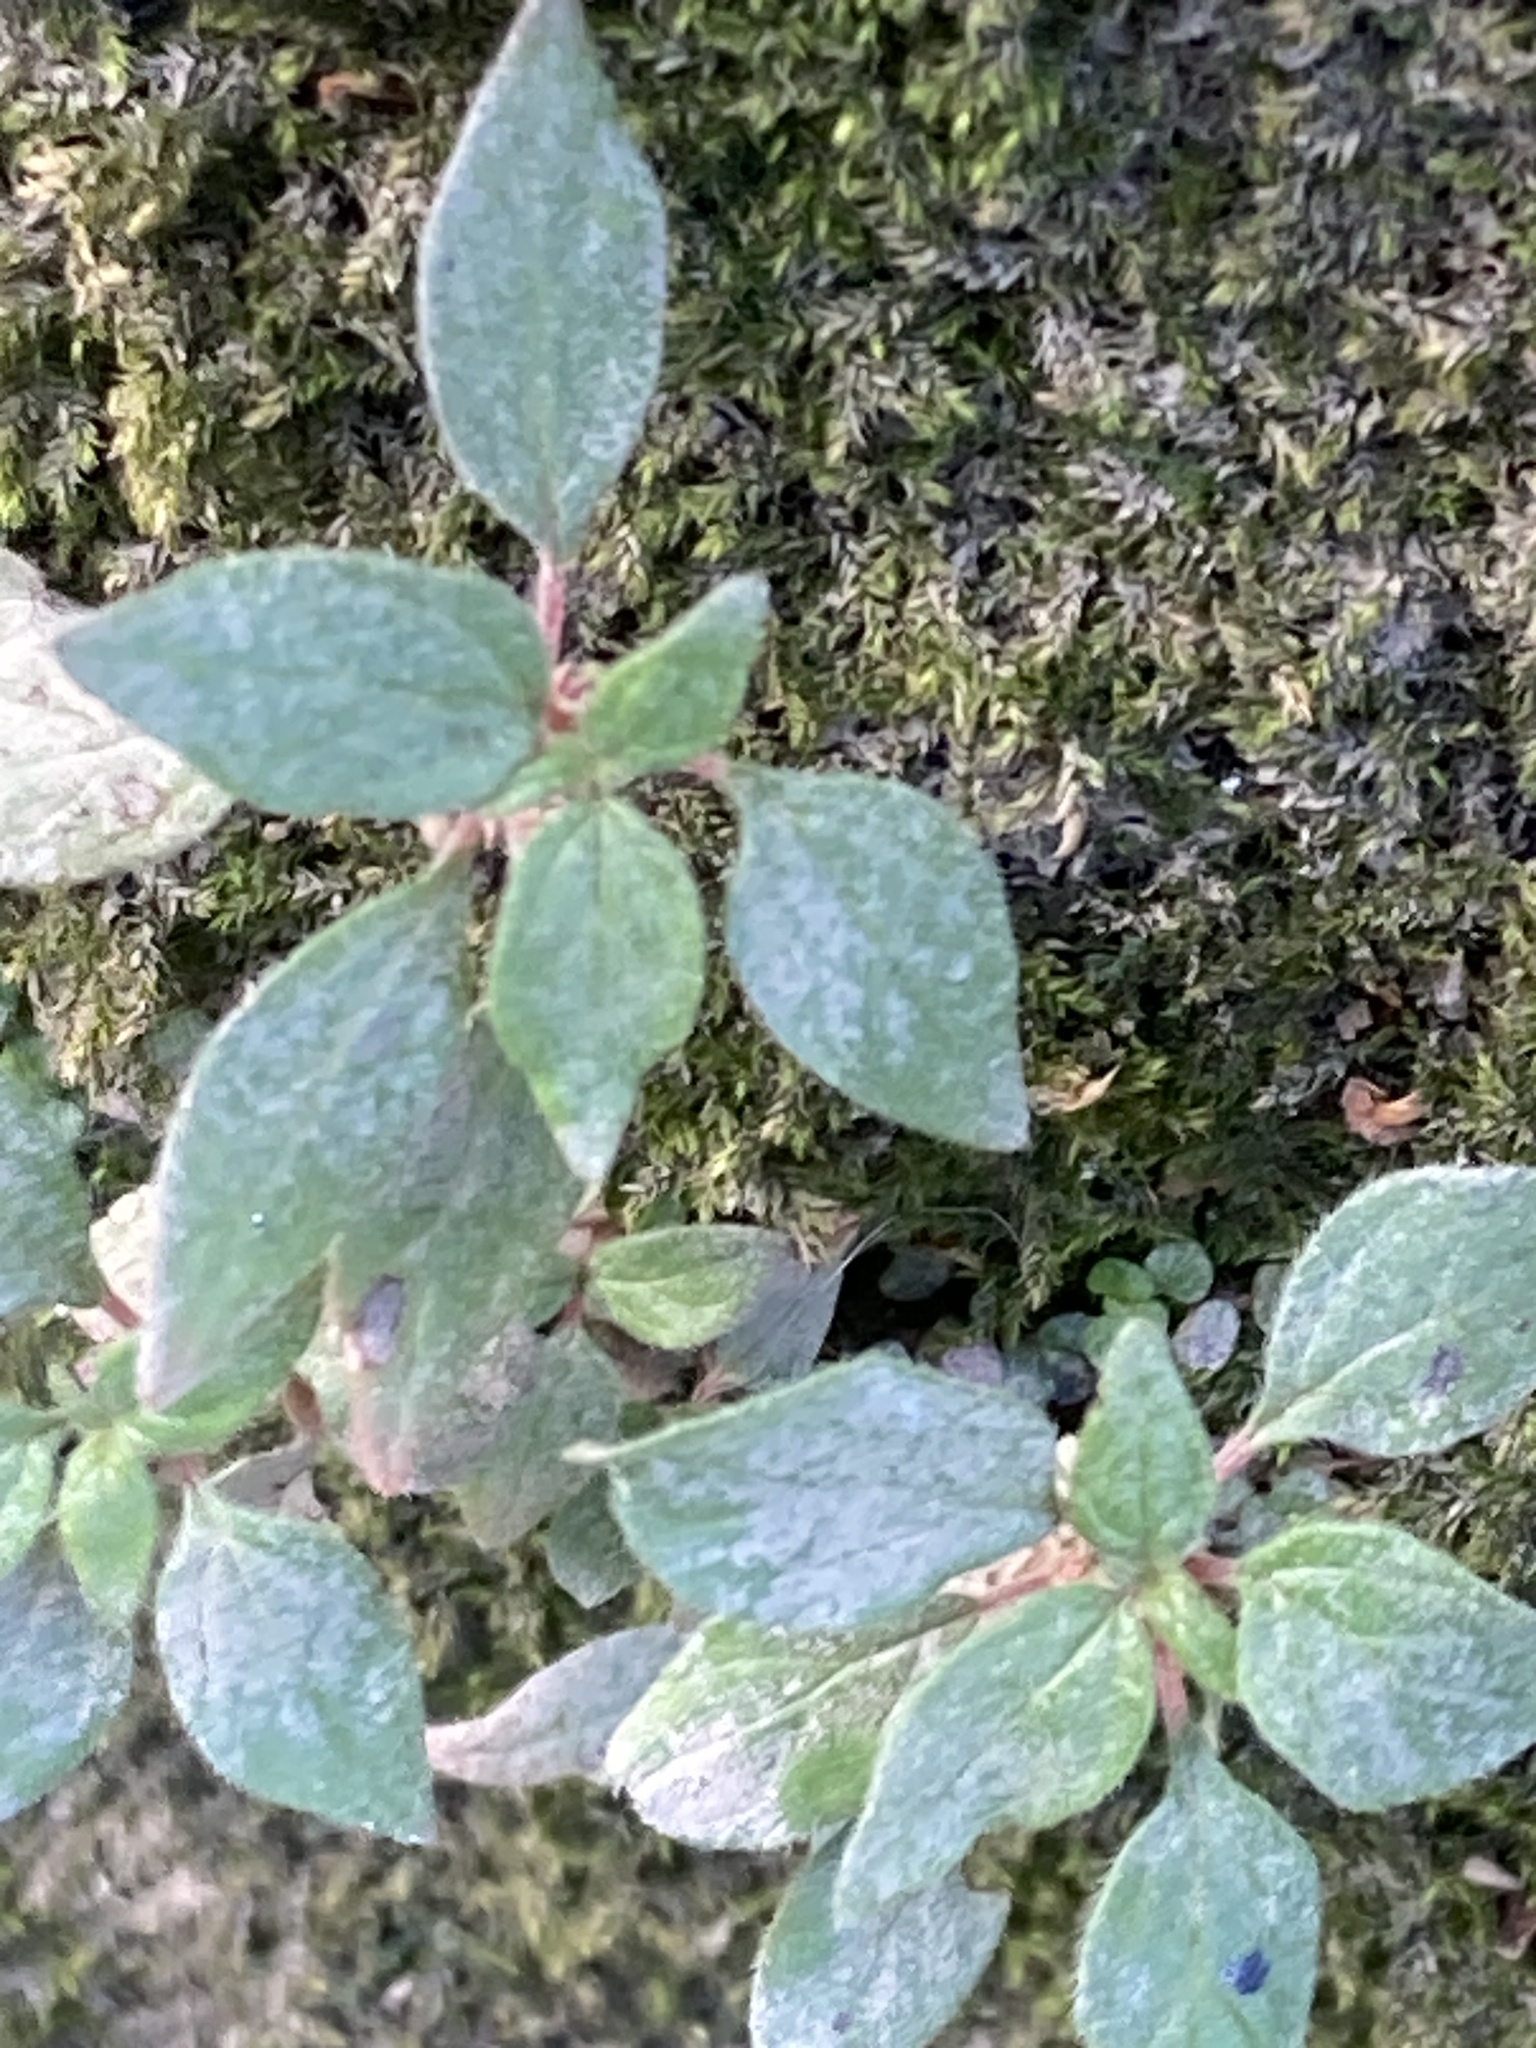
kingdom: Plantae
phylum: Tracheophyta
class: Magnoliopsida
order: Rosales
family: Urticaceae
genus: Parietaria
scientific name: Parietaria judaica
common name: Pellitory-of-the-wall
